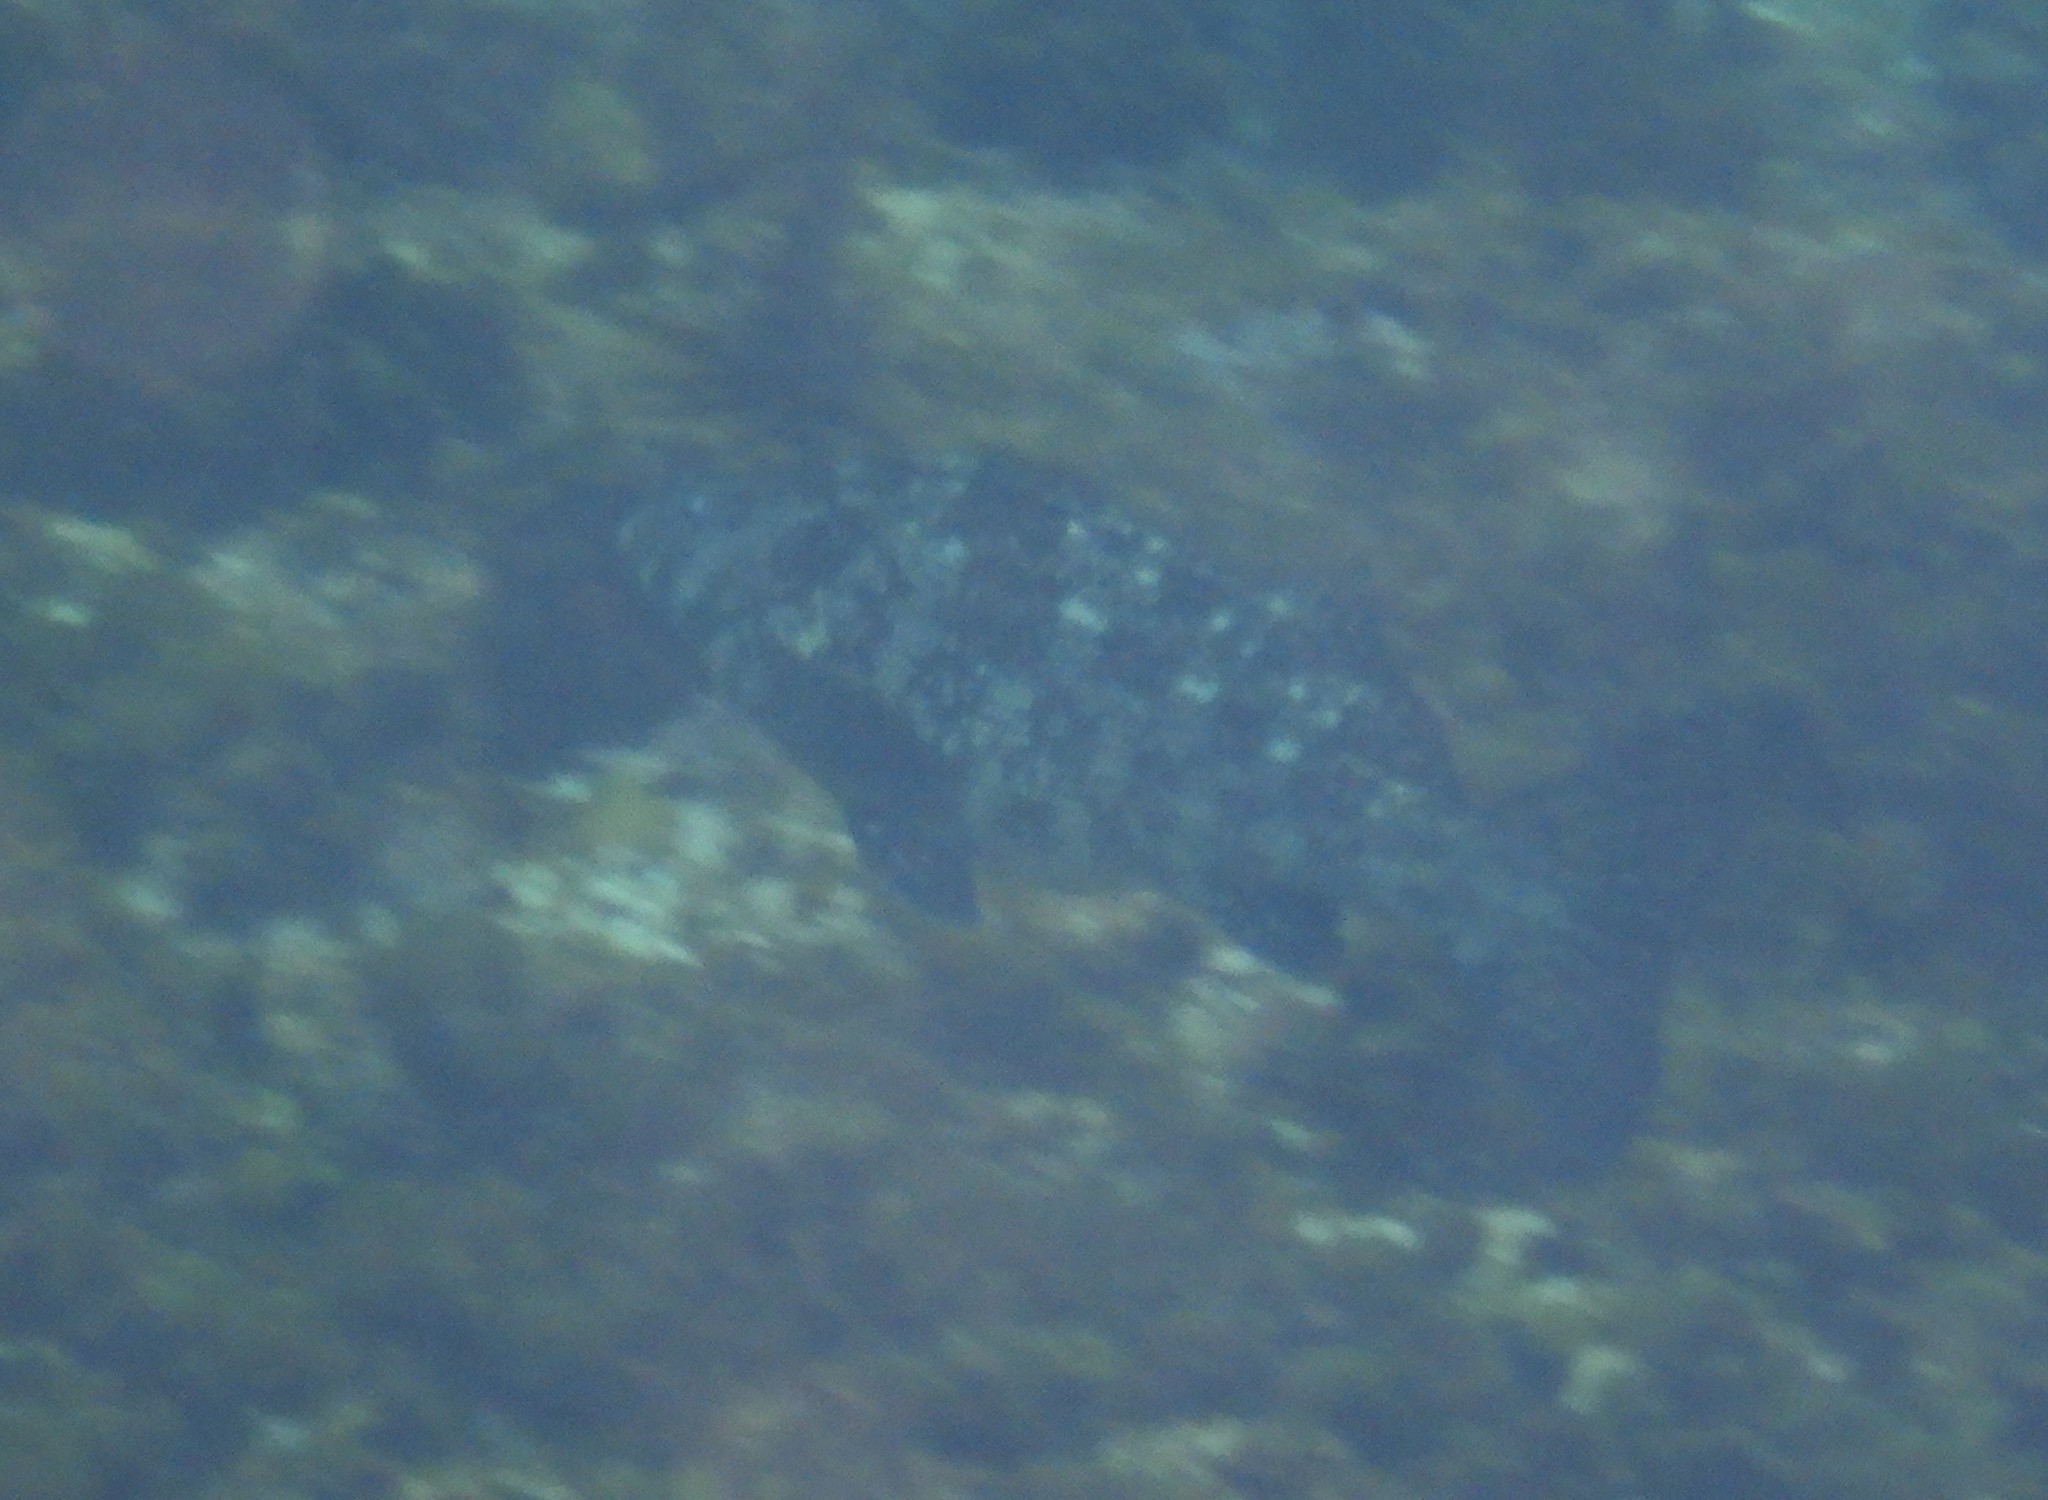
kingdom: Animalia
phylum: Chordata
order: Perciformes
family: Aplodactylidae
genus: Aplodactylus
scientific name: Aplodactylus lophodon
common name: Cockatoo fish
